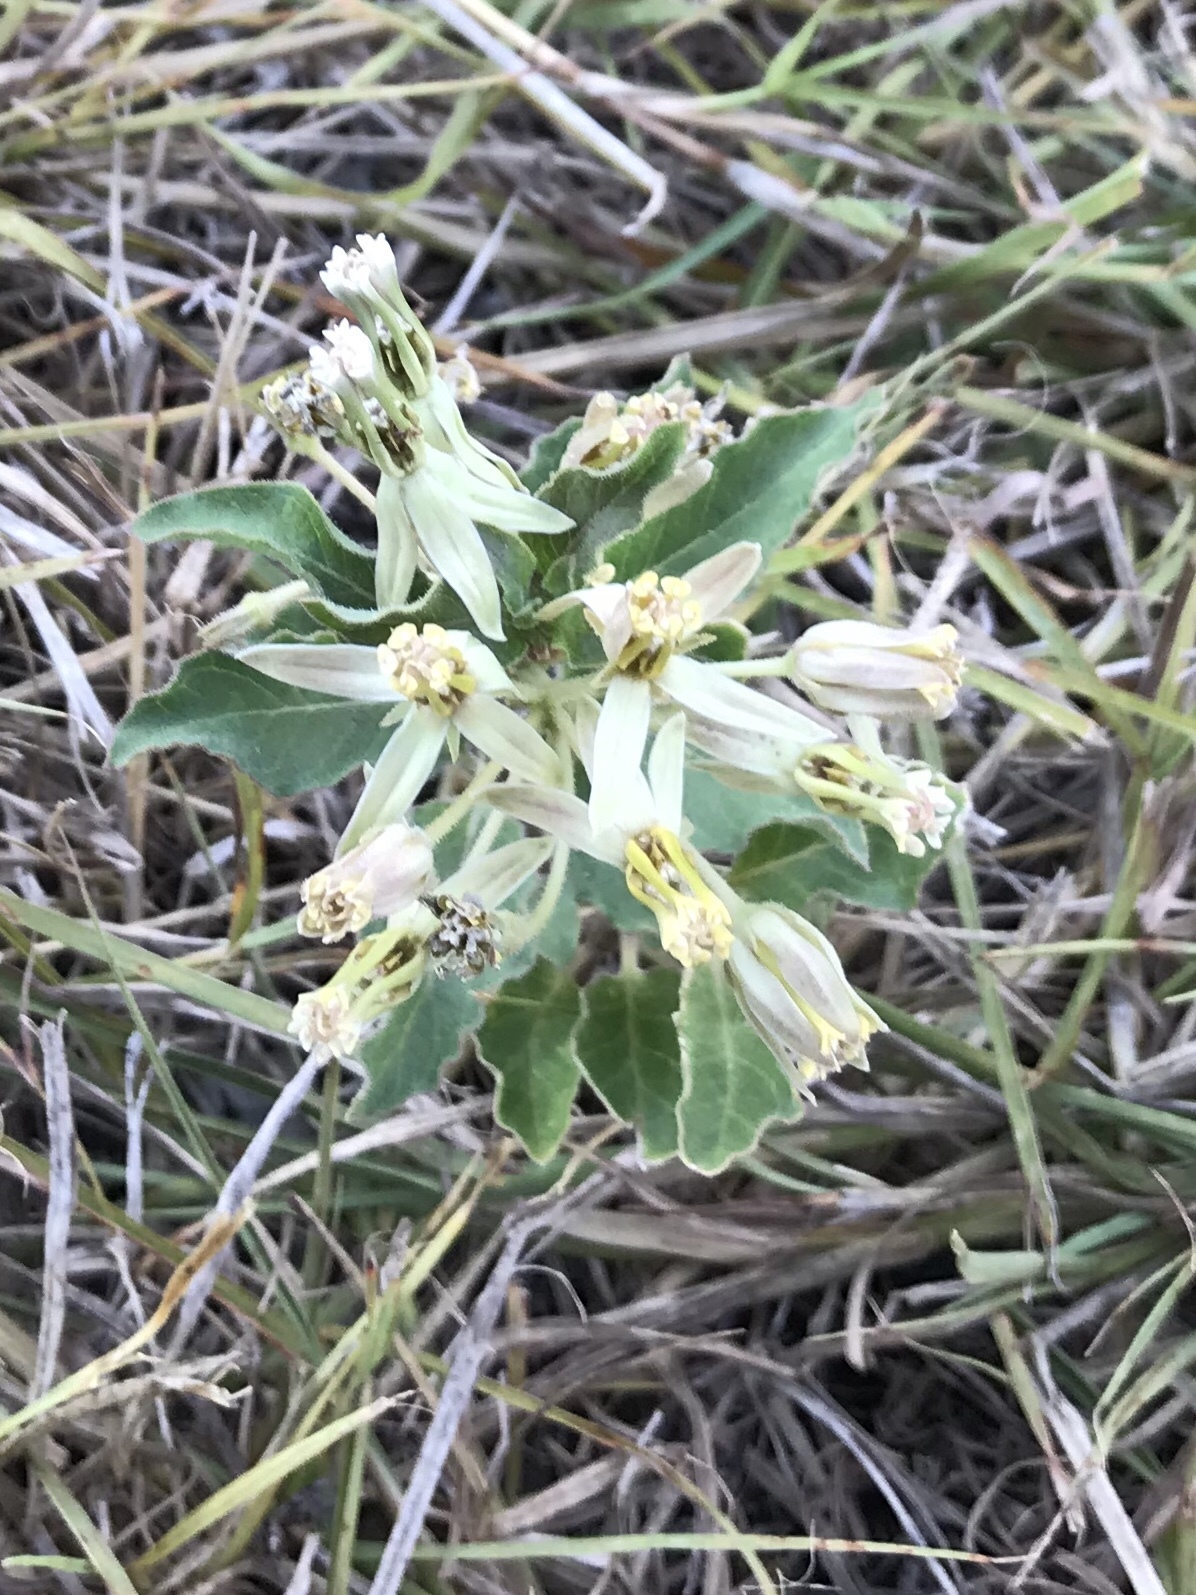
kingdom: Plantae
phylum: Tracheophyta
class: Magnoliopsida
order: Gentianales
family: Apocynaceae
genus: Asclepias
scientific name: Asclepias oenotheroides
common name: Zizotes milkweed
